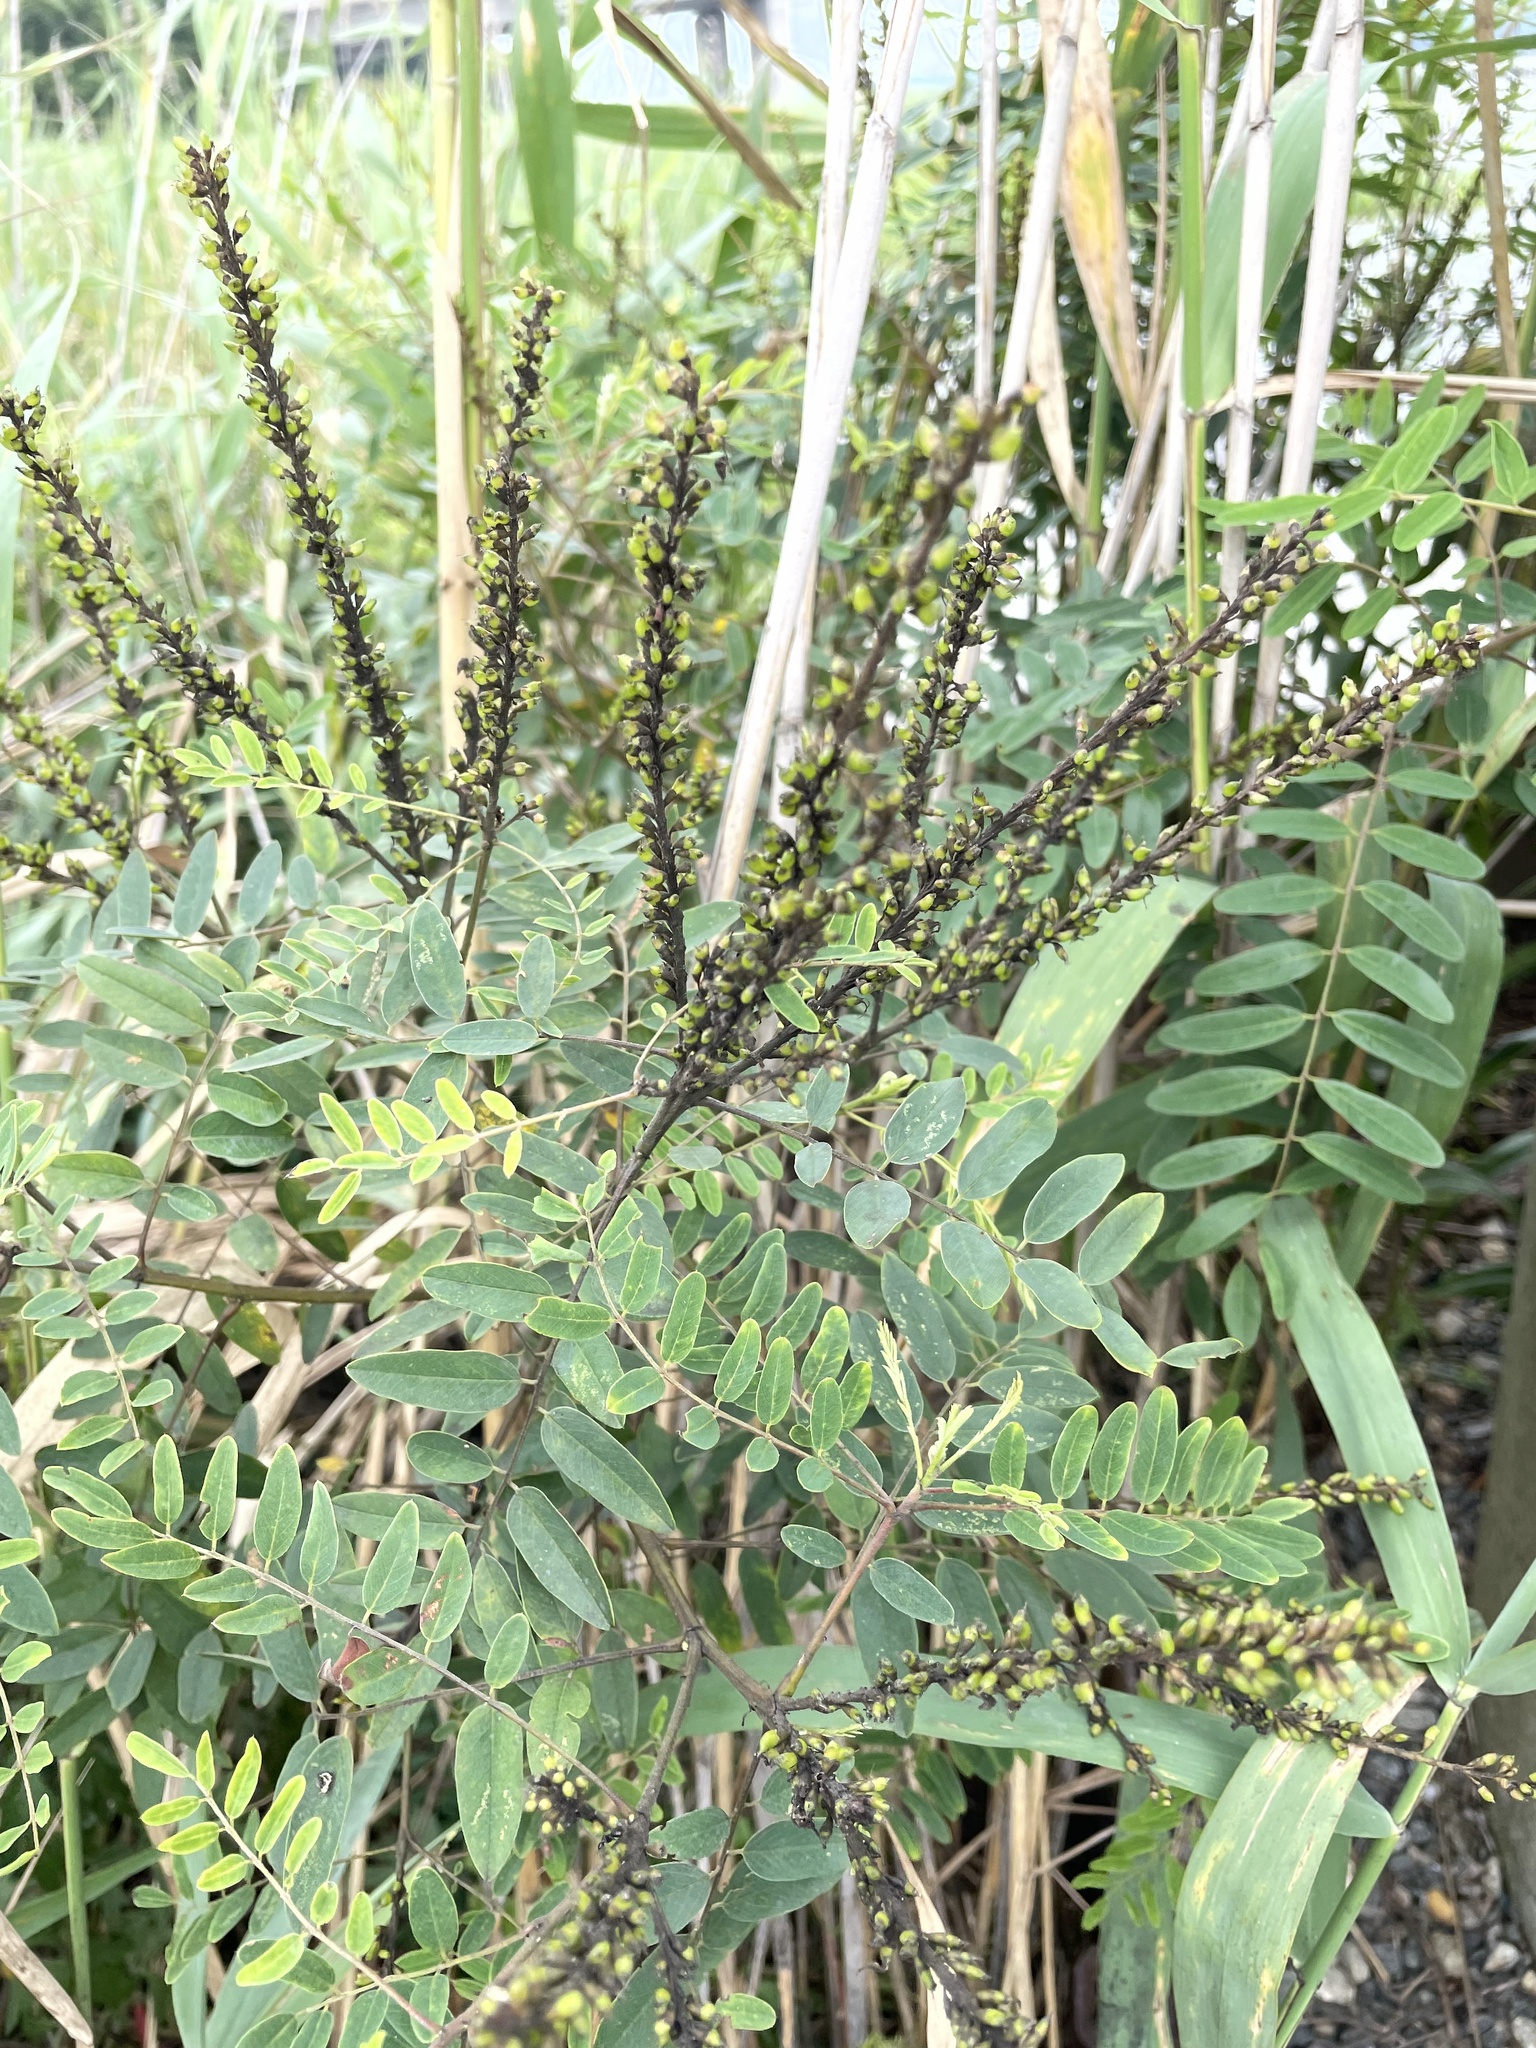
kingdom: Plantae
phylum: Tracheophyta
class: Magnoliopsida
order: Fabales
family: Fabaceae
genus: Amorpha
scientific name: Amorpha fruticosa
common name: False indigo
